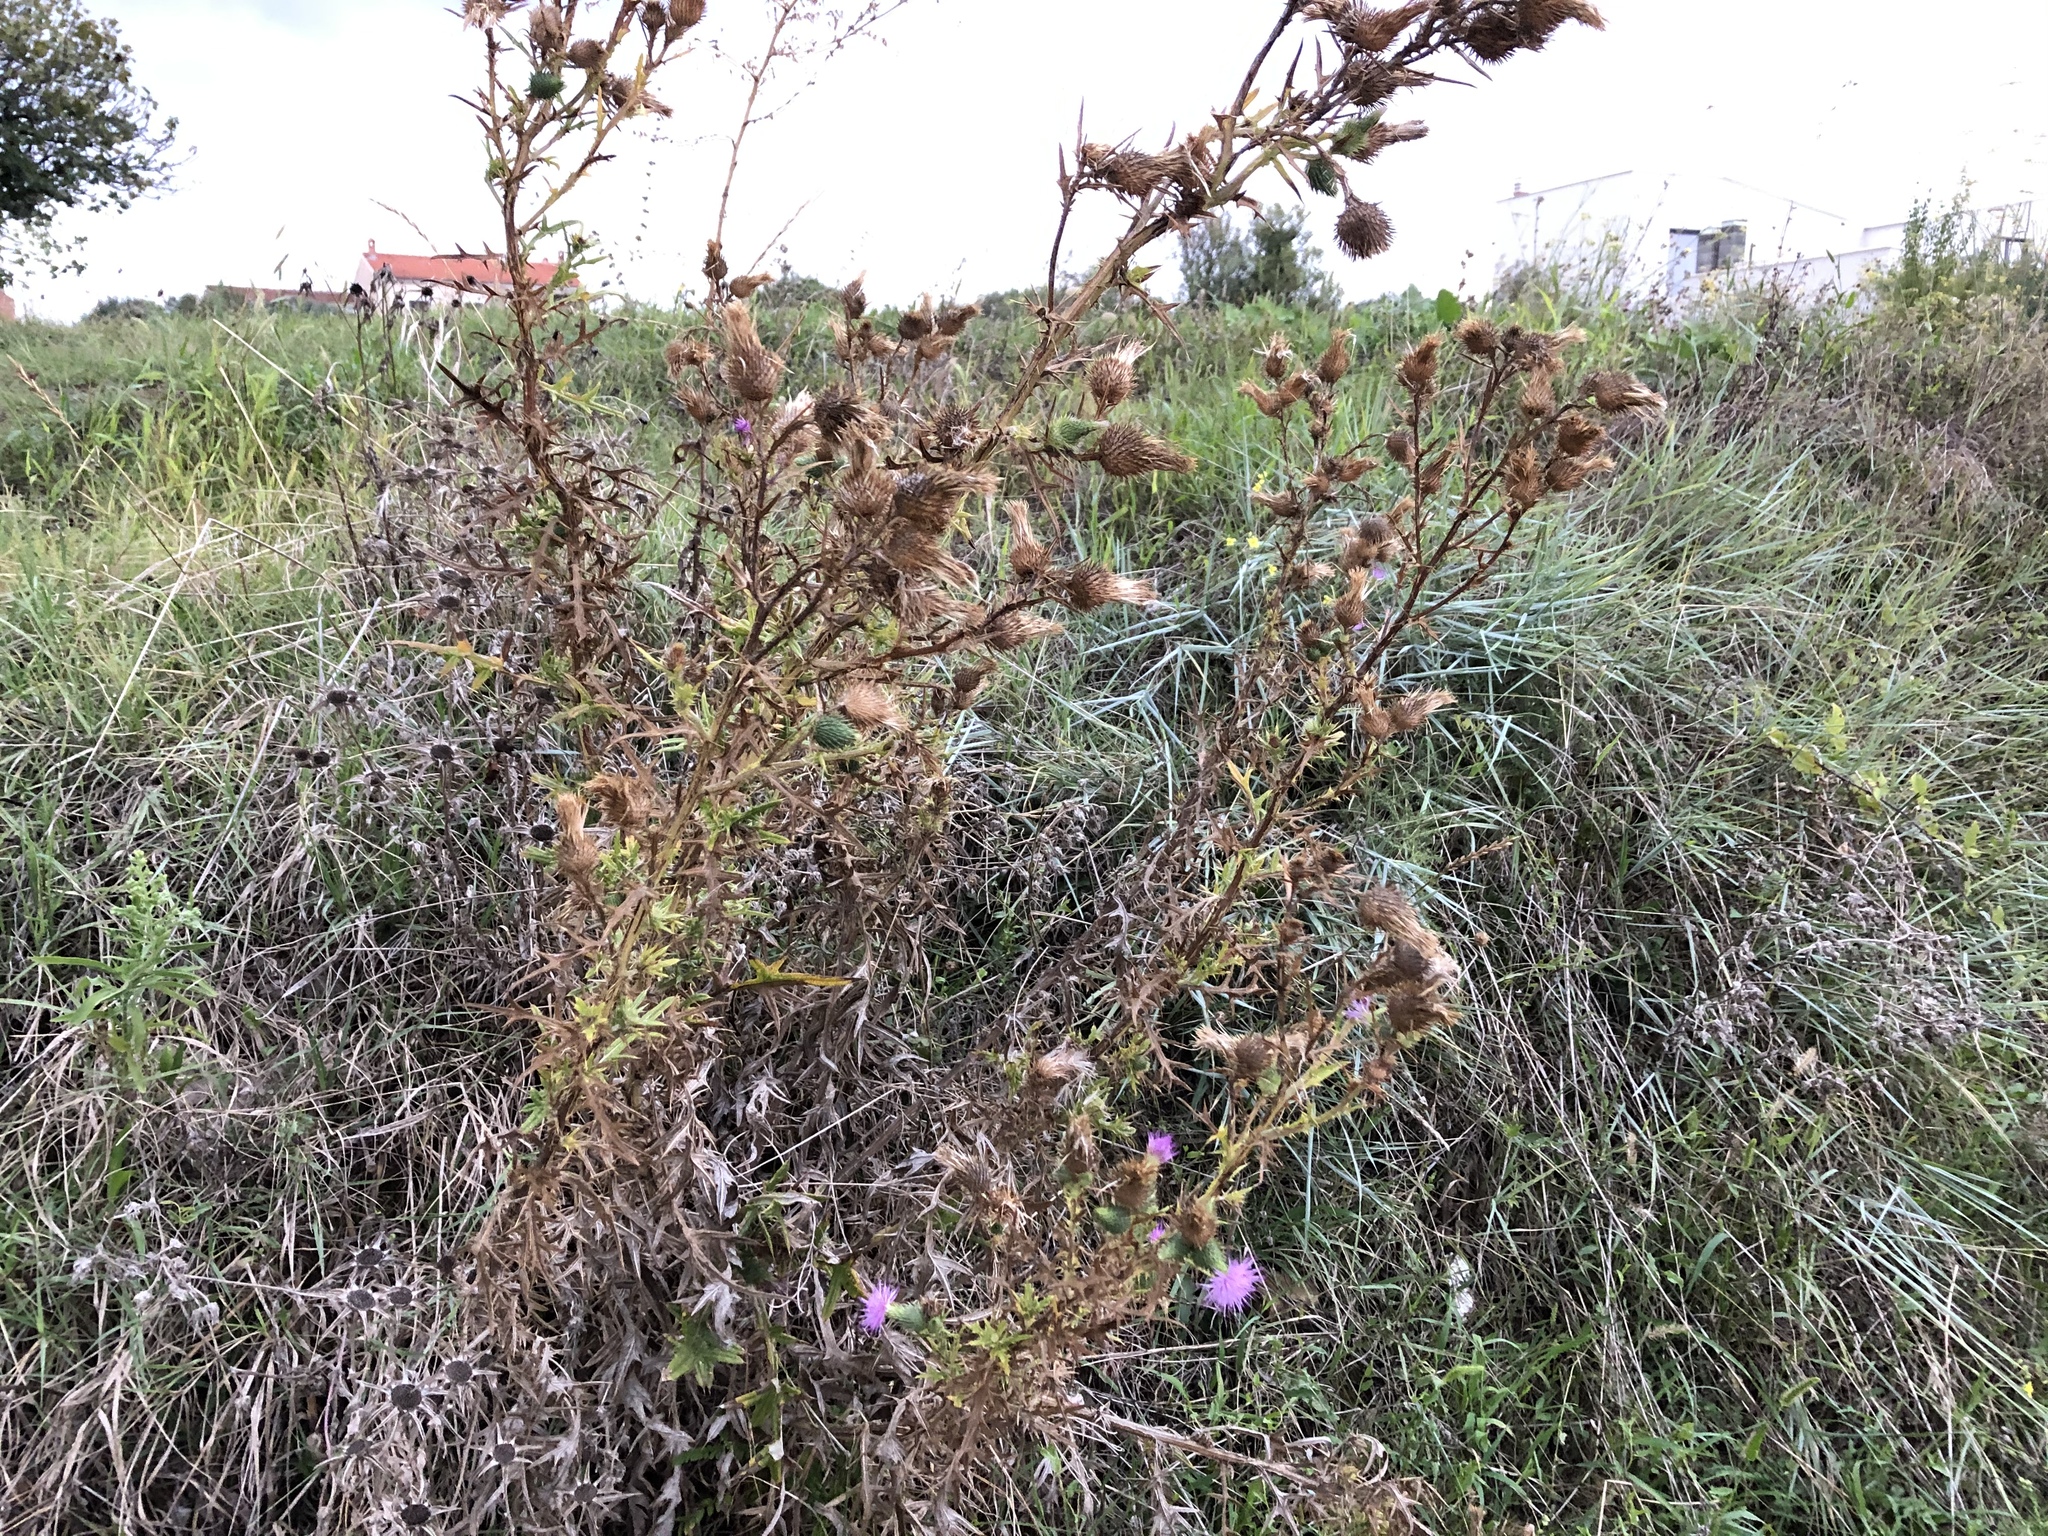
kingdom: Plantae
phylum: Tracheophyta
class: Magnoliopsida
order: Asterales
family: Asteraceae
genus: Cirsium
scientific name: Cirsium vulgare
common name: Bull thistle
